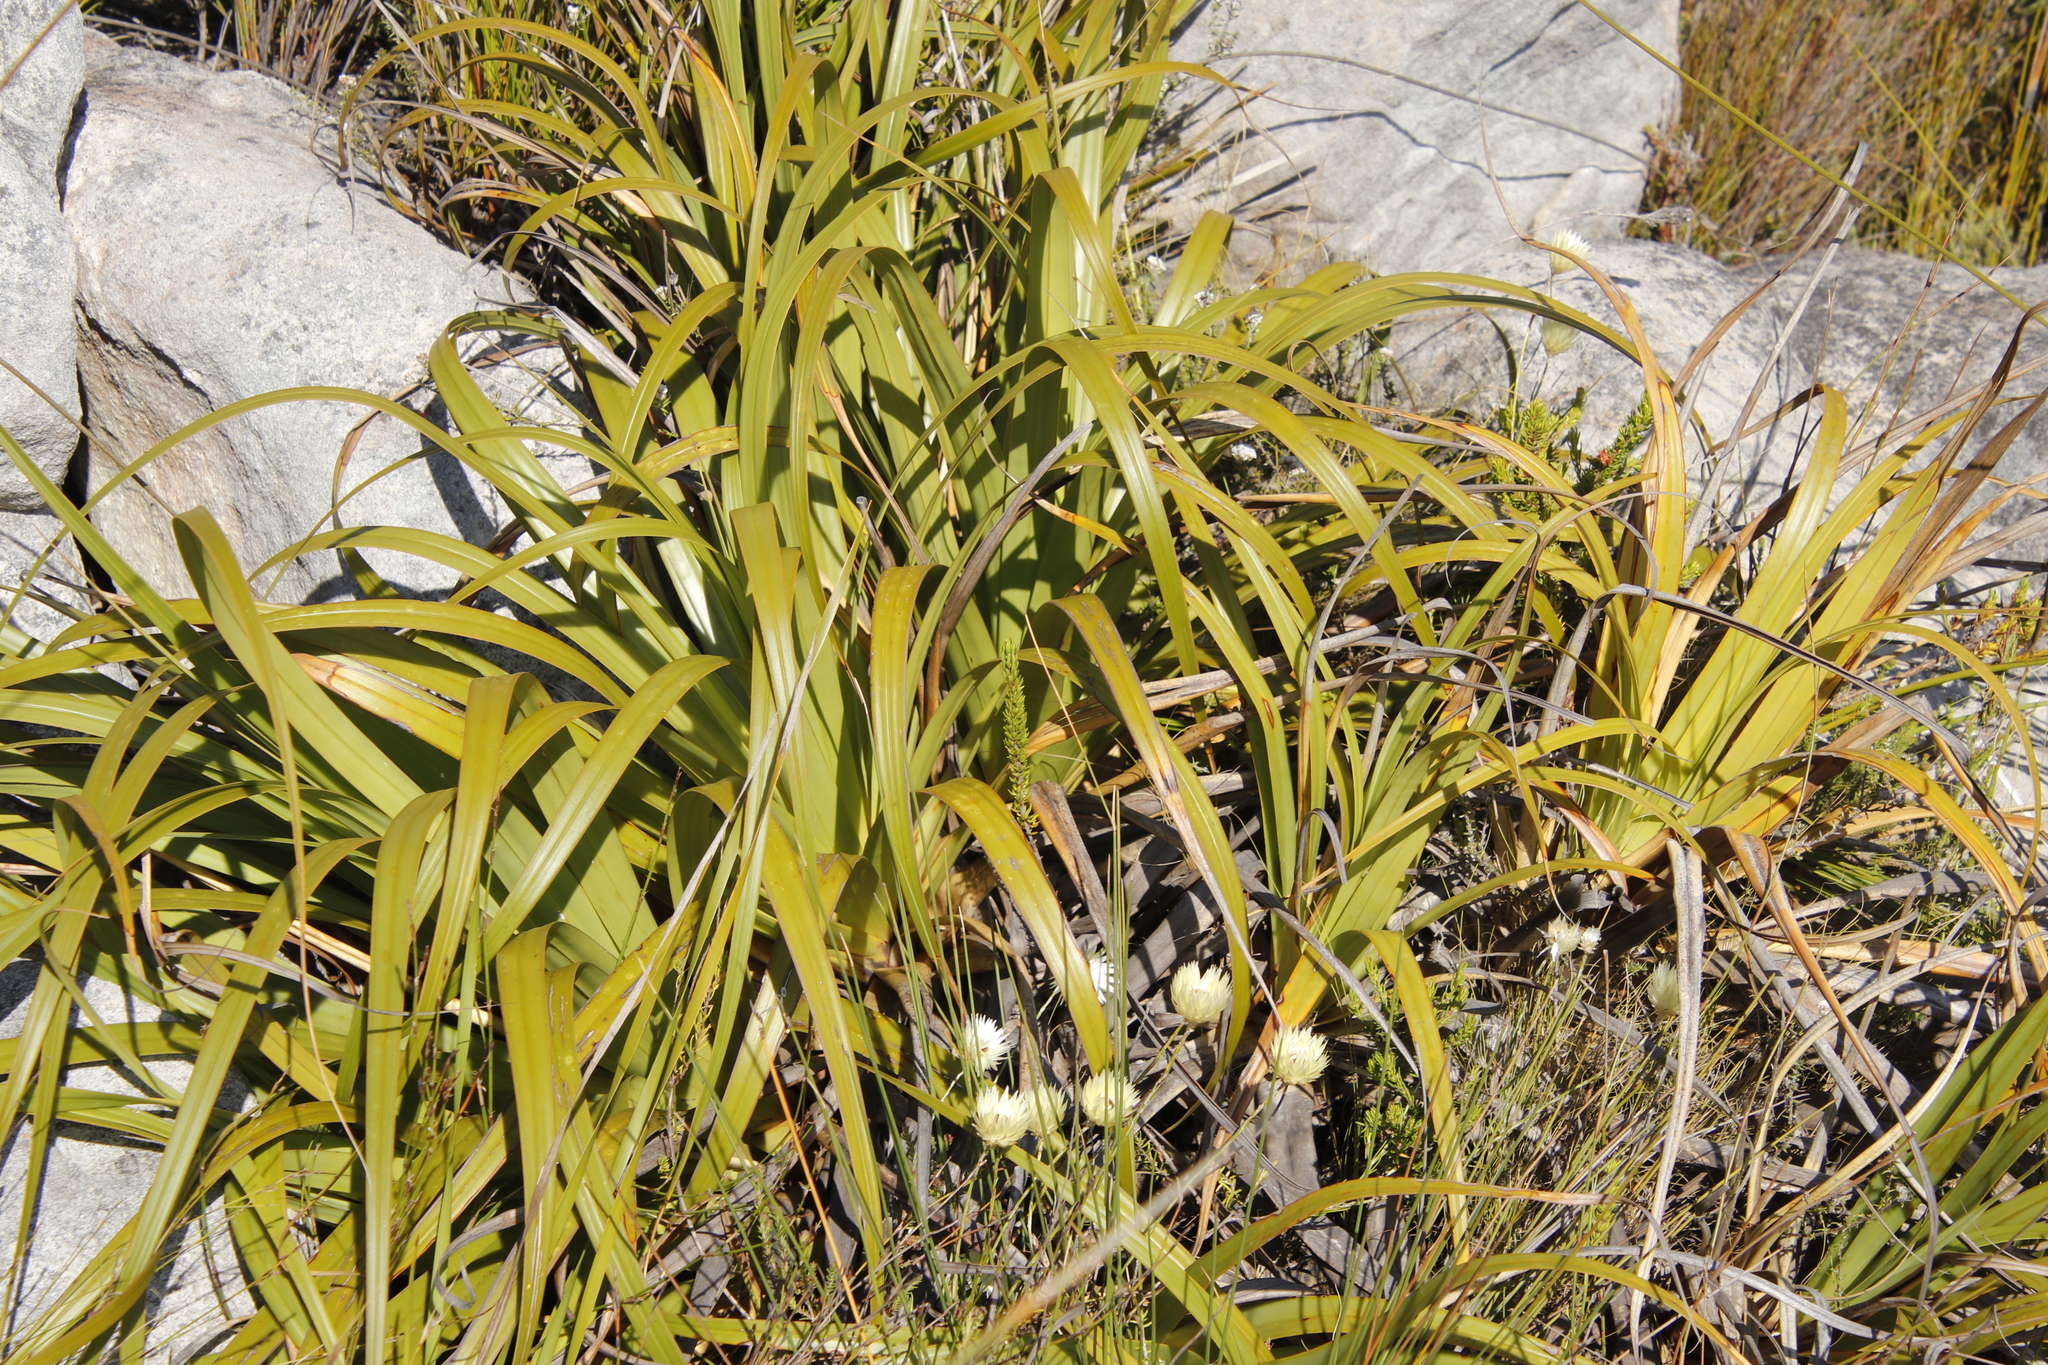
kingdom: Plantae
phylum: Tracheophyta
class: Liliopsida
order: Poales
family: Cyperaceae
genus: Tetraria
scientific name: Tetraria thermalis
